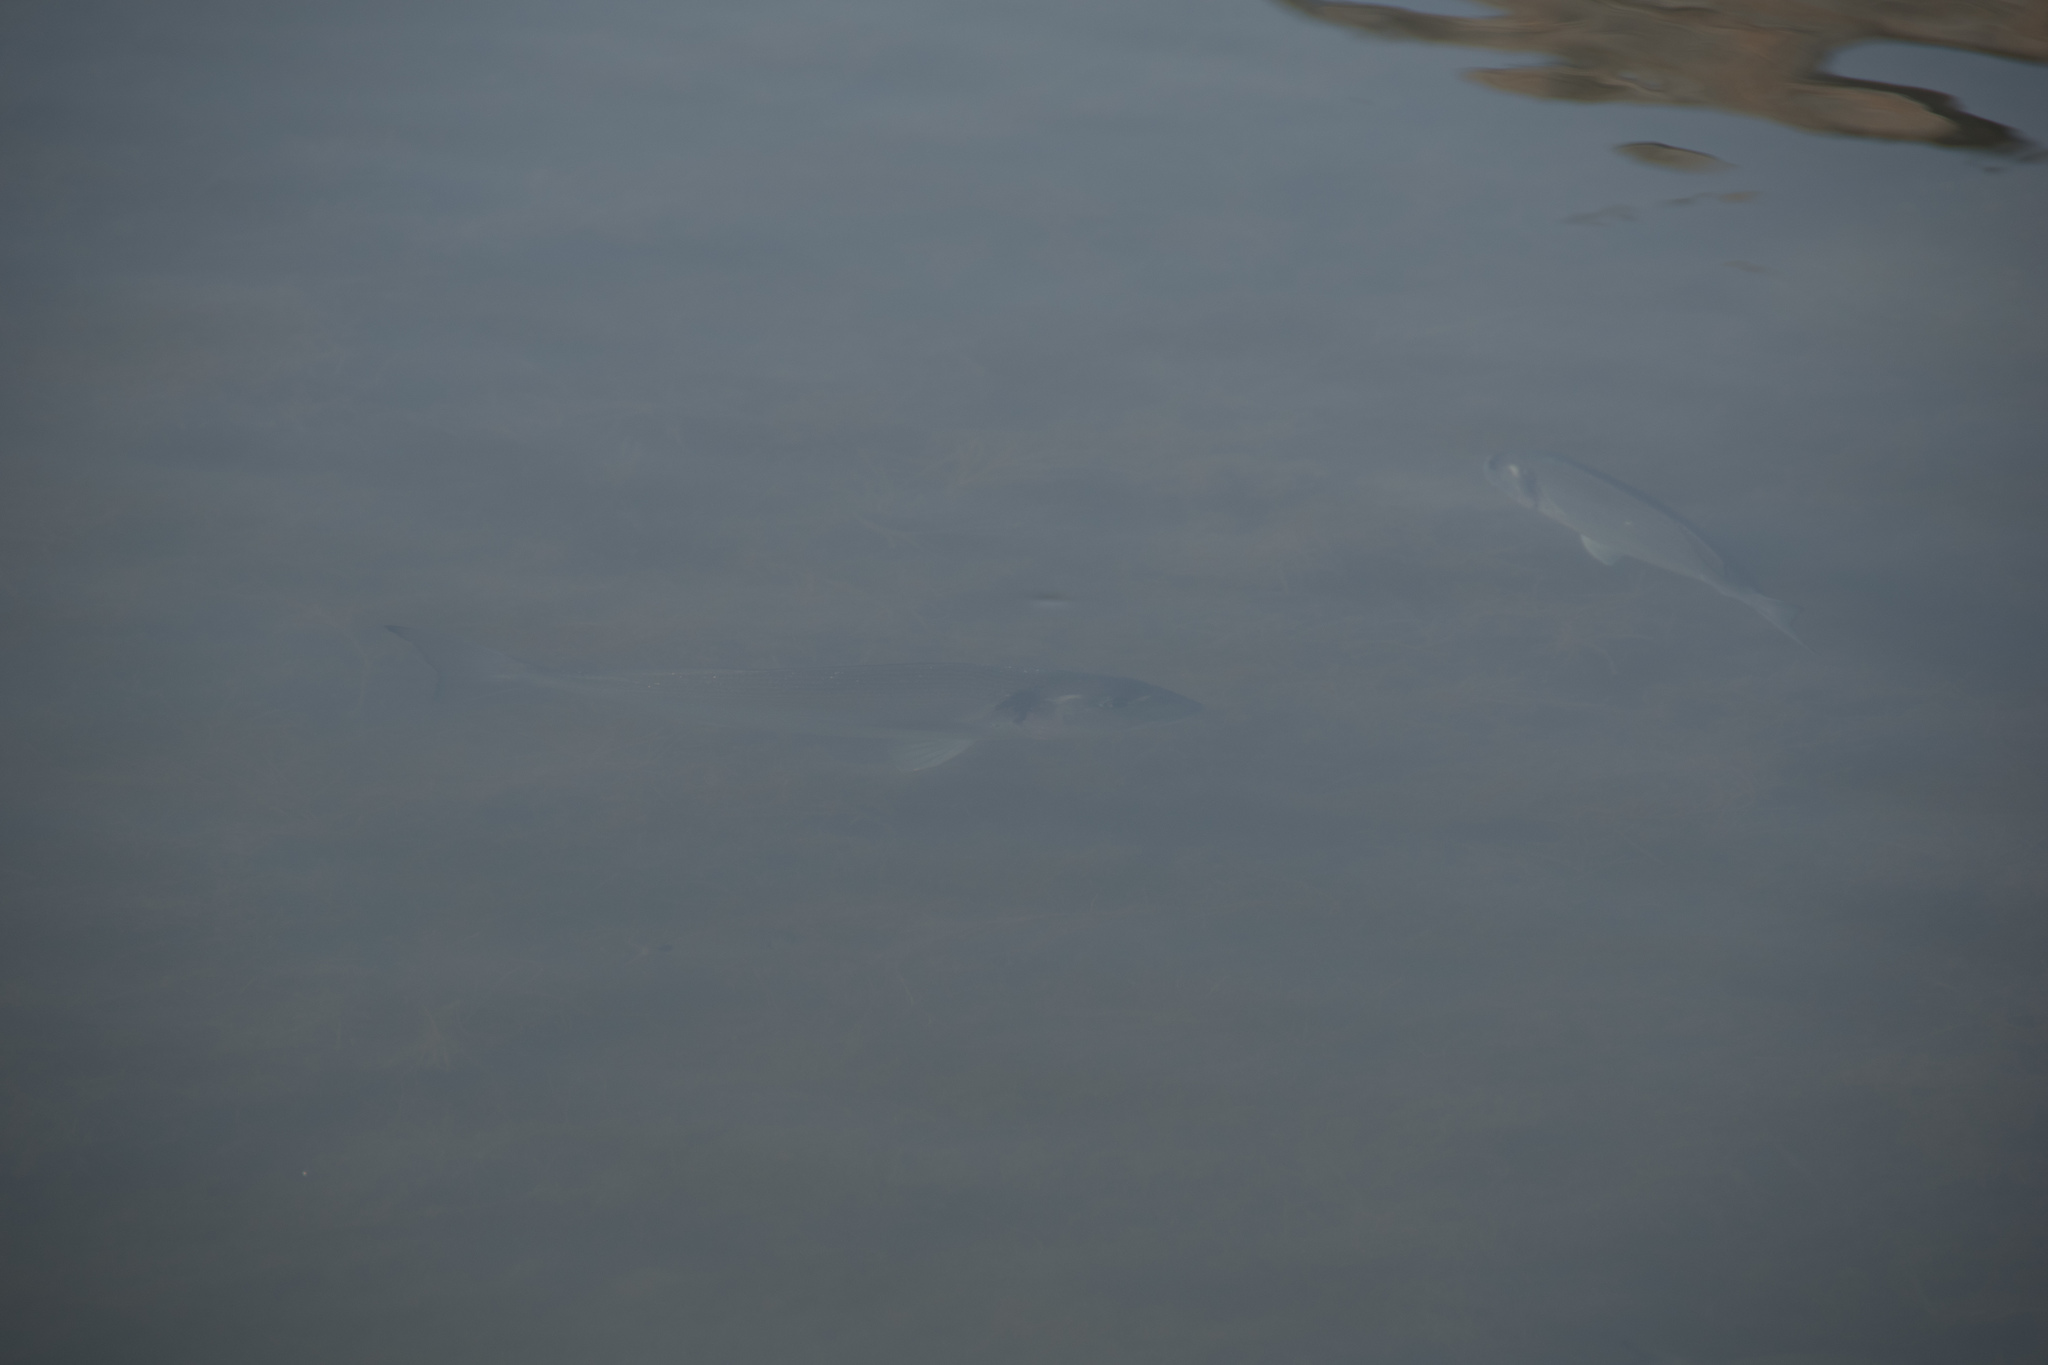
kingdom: Animalia
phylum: Chordata
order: Perciformes
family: Sparidae
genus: Sparus
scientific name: Sparus aurata
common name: Gilthead
